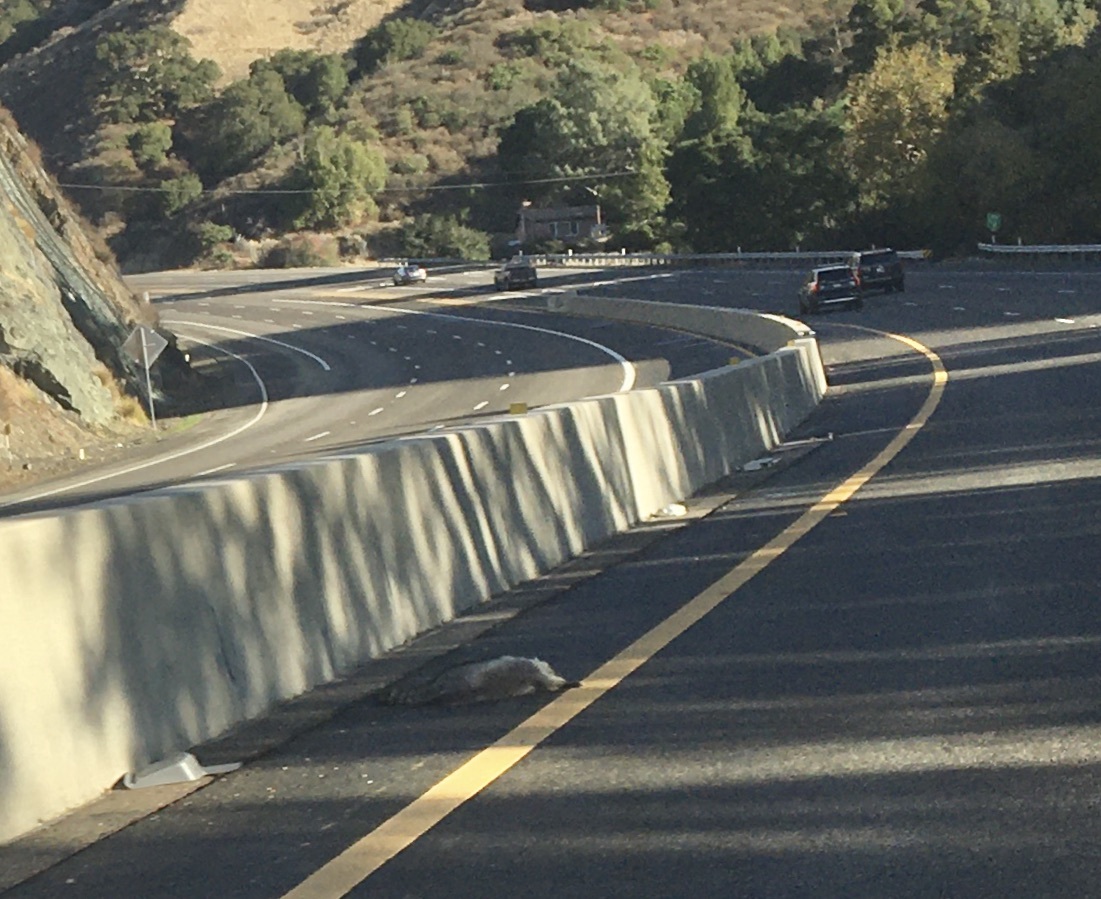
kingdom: Animalia
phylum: Chordata
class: Mammalia
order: Carnivora
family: Procyonidae
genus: Procyon
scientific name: Procyon lotor
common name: Raccoon
